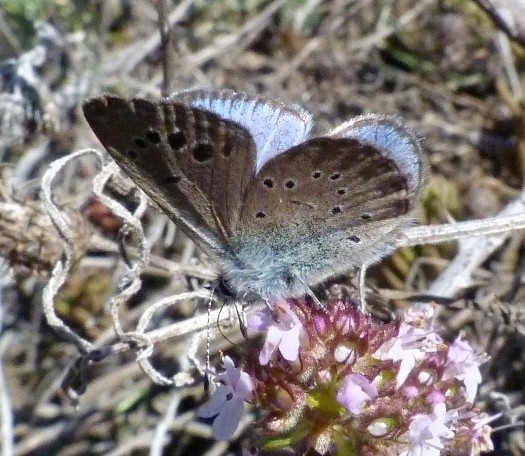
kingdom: Animalia
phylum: Arthropoda
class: Insecta
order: Lepidoptera
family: Lycaenidae
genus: Glaucopsyche
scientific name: Glaucopsyche melanops
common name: Black-eyed blue
